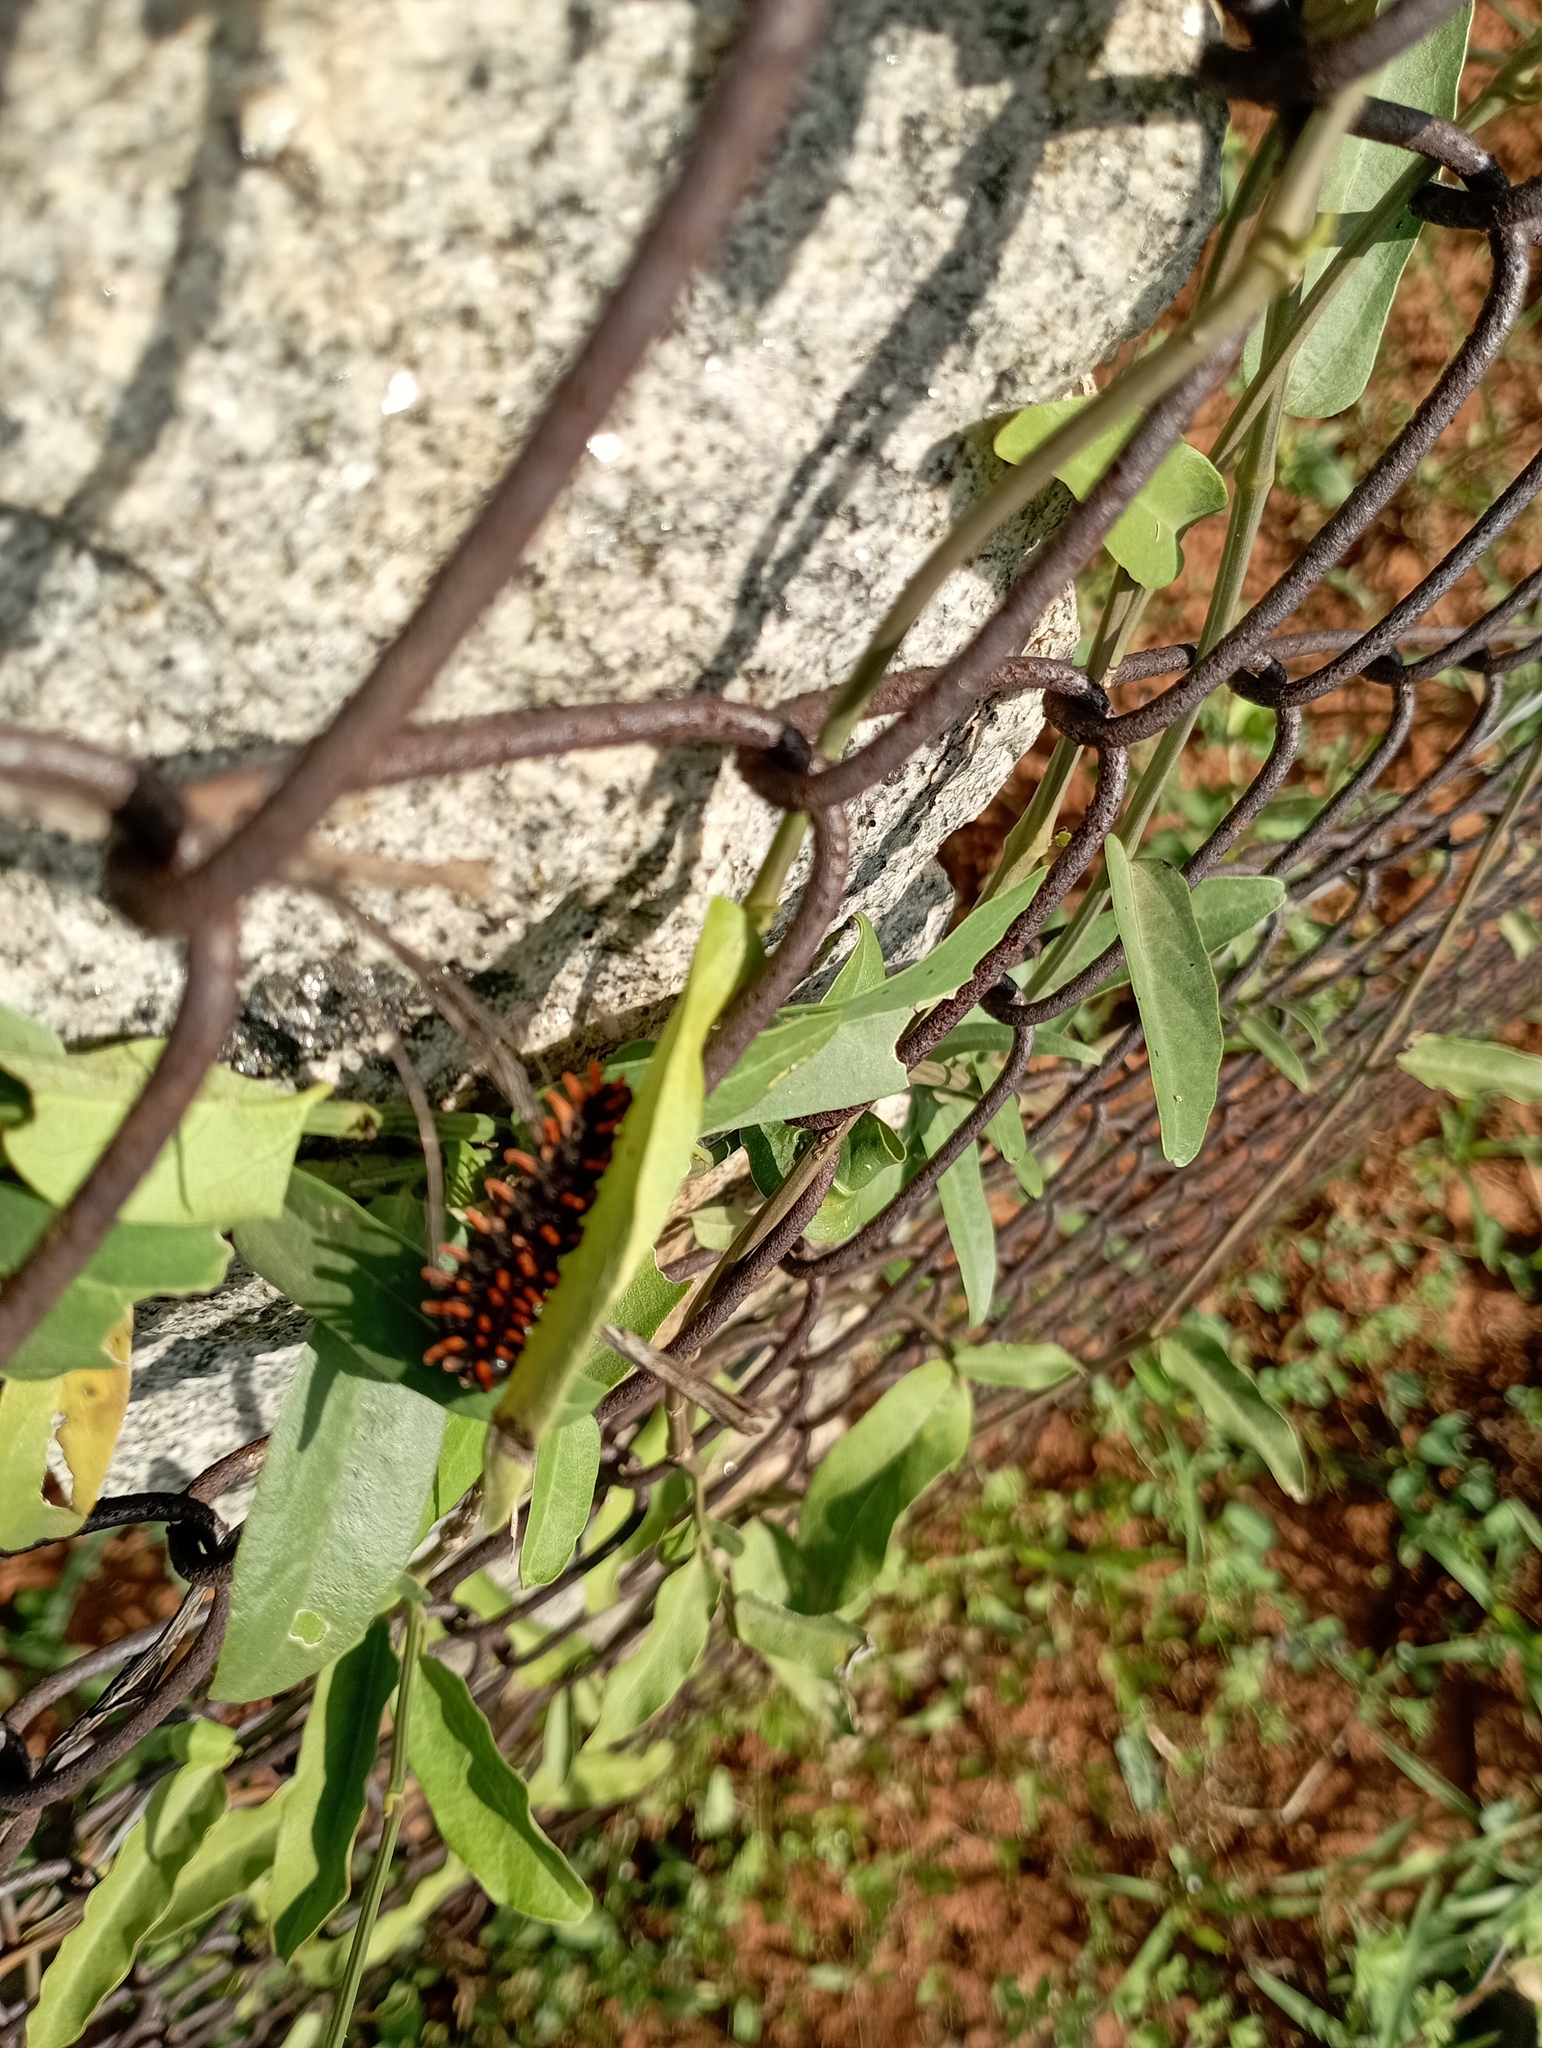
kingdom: Animalia
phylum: Arthropoda
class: Insecta
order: Lepidoptera
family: Papilionidae
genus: Pachliopta
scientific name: Pachliopta hector
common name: Crimson rose
